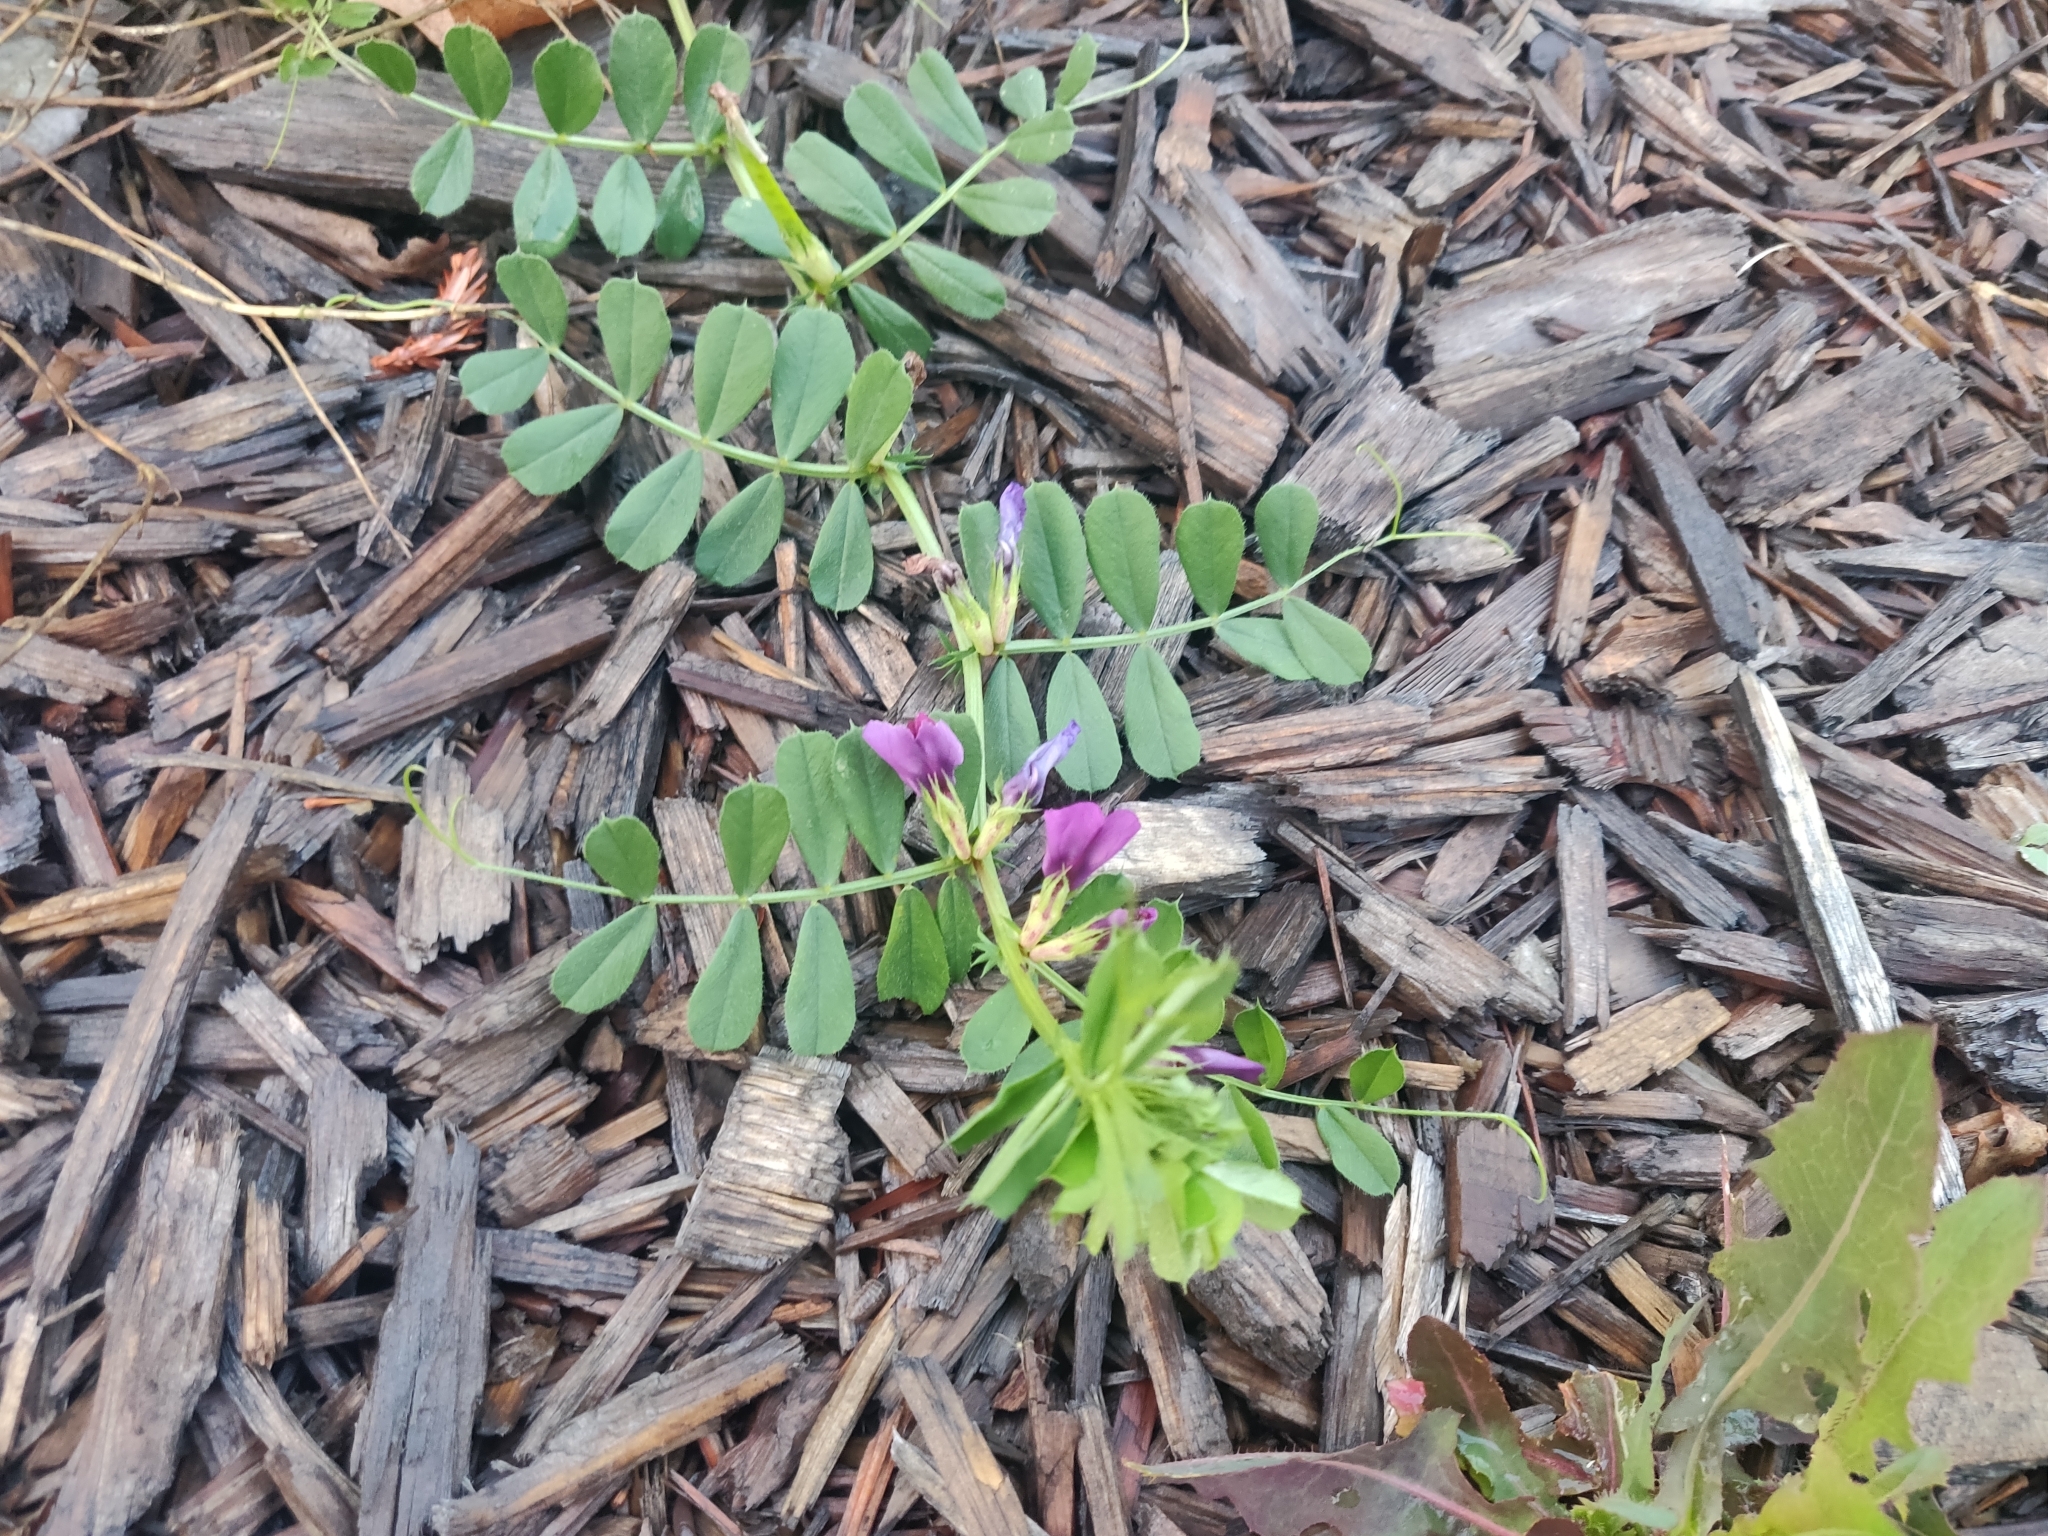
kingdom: Plantae
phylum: Tracheophyta
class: Magnoliopsida
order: Fabales
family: Fabaceae
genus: Vicia
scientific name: Vicia sativa
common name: Garden vetch
